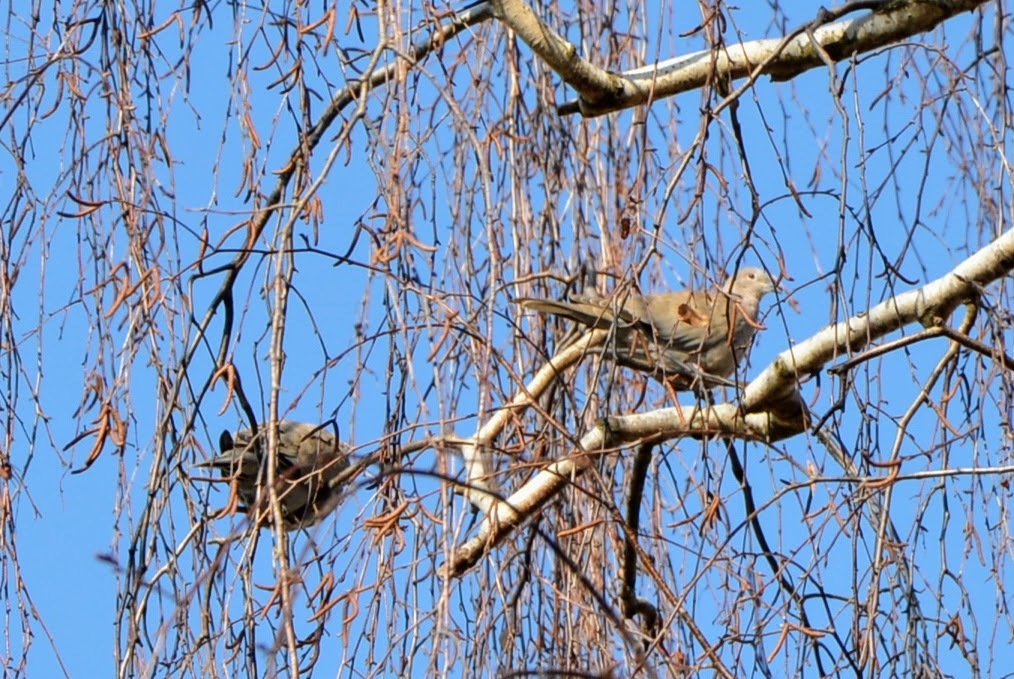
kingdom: Animalia
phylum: Chordata
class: Aves
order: Columbiformes
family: Columbidae
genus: Streptopelia
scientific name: Streptopelia decaocto
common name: Eurasian collared dove
